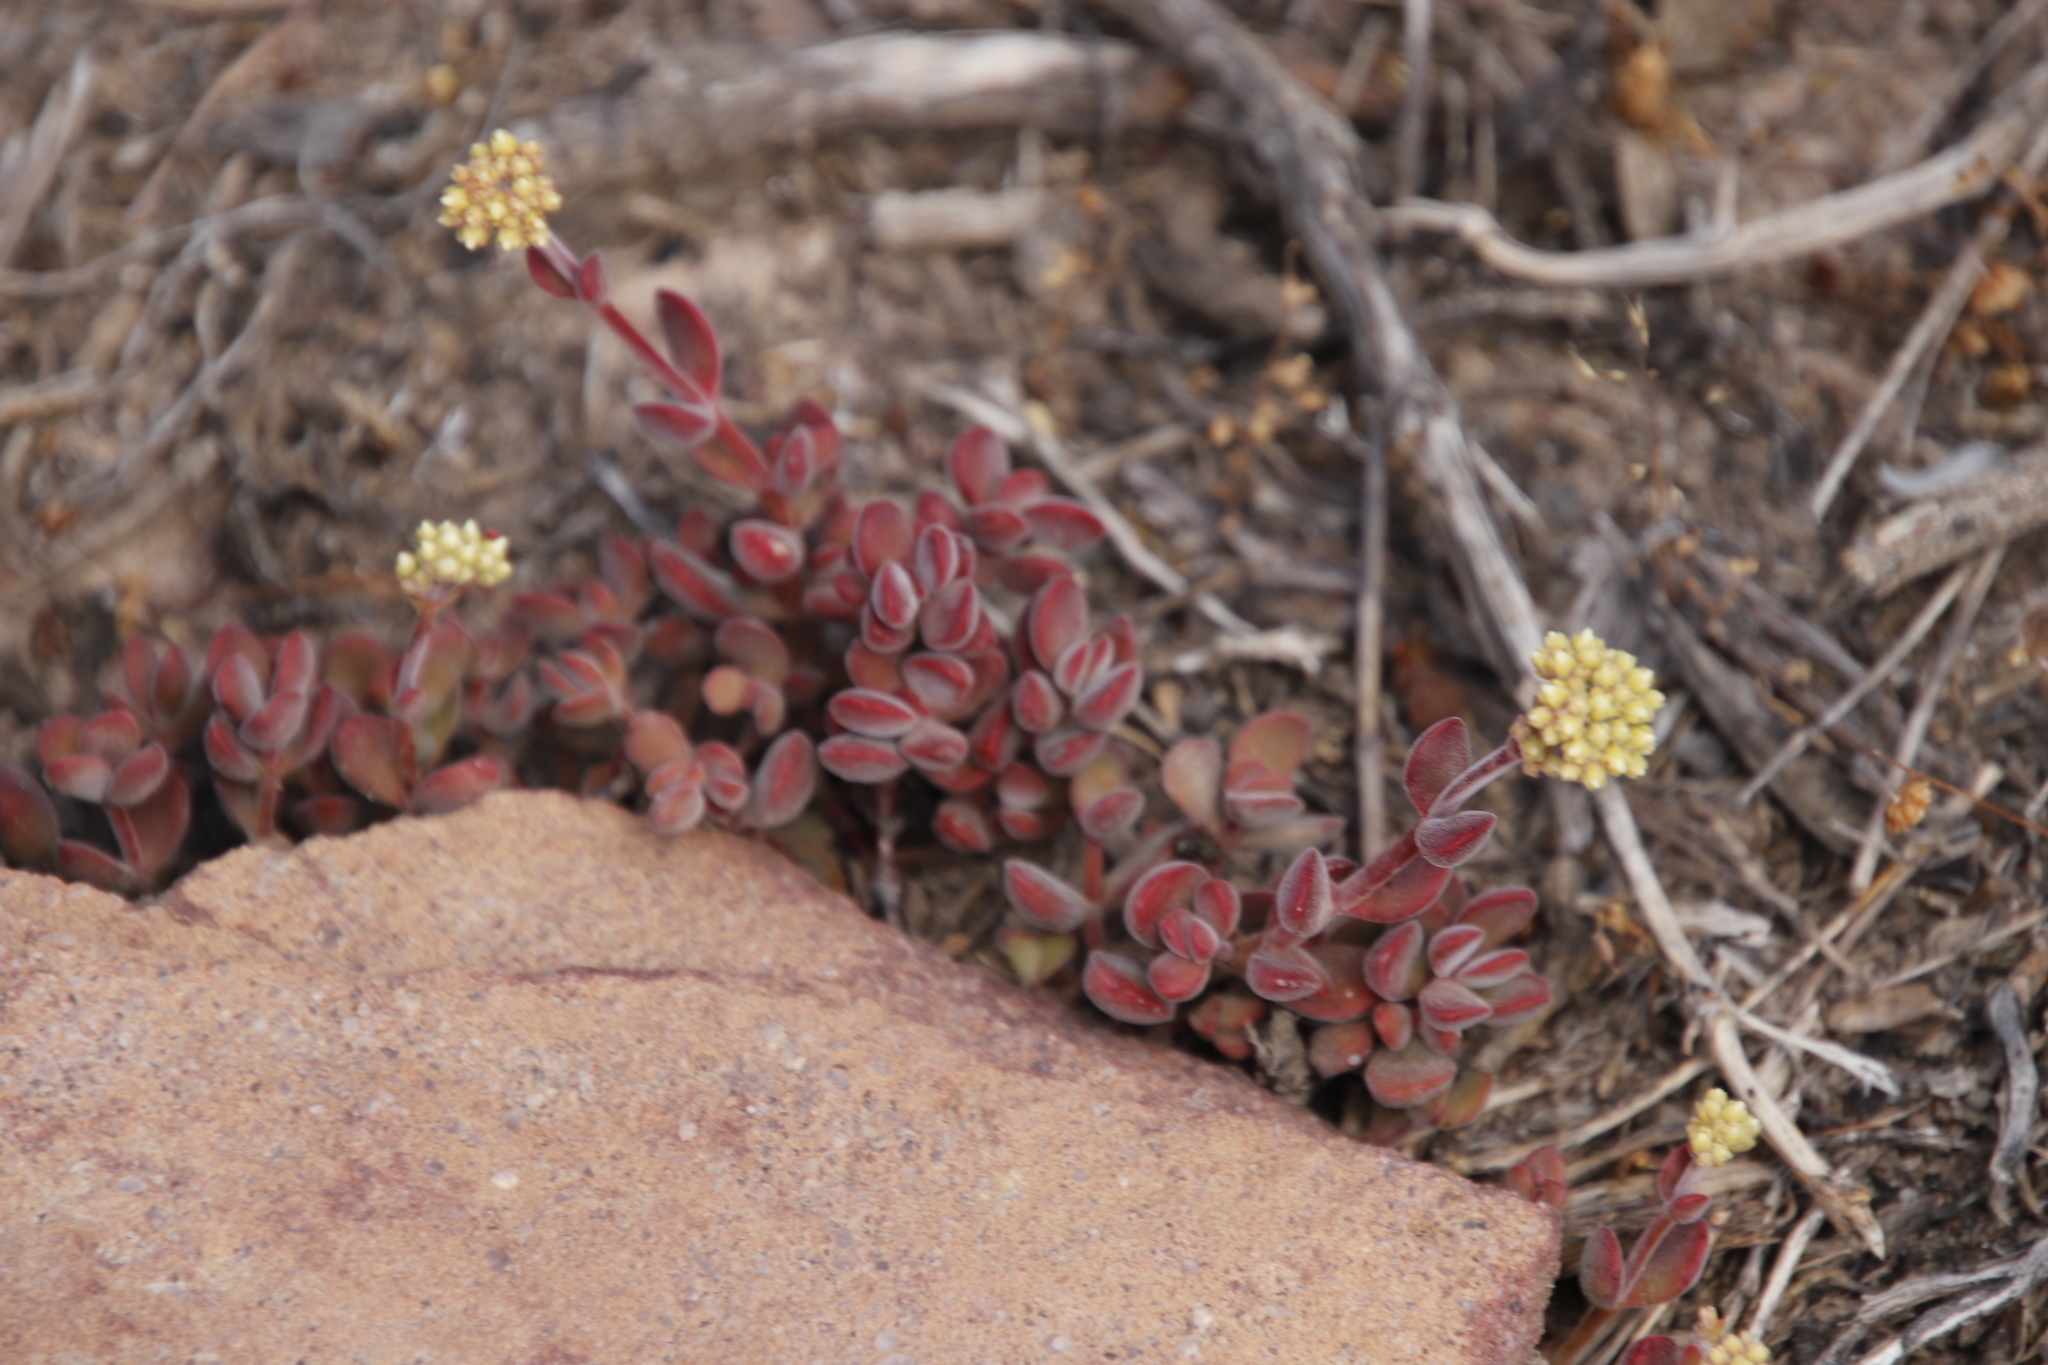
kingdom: Plantae
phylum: Tracheophyta
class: Magnoliopsida
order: Saxifragales
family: Crassulaceae
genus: Crassula
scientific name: Crassula atropurpurea
